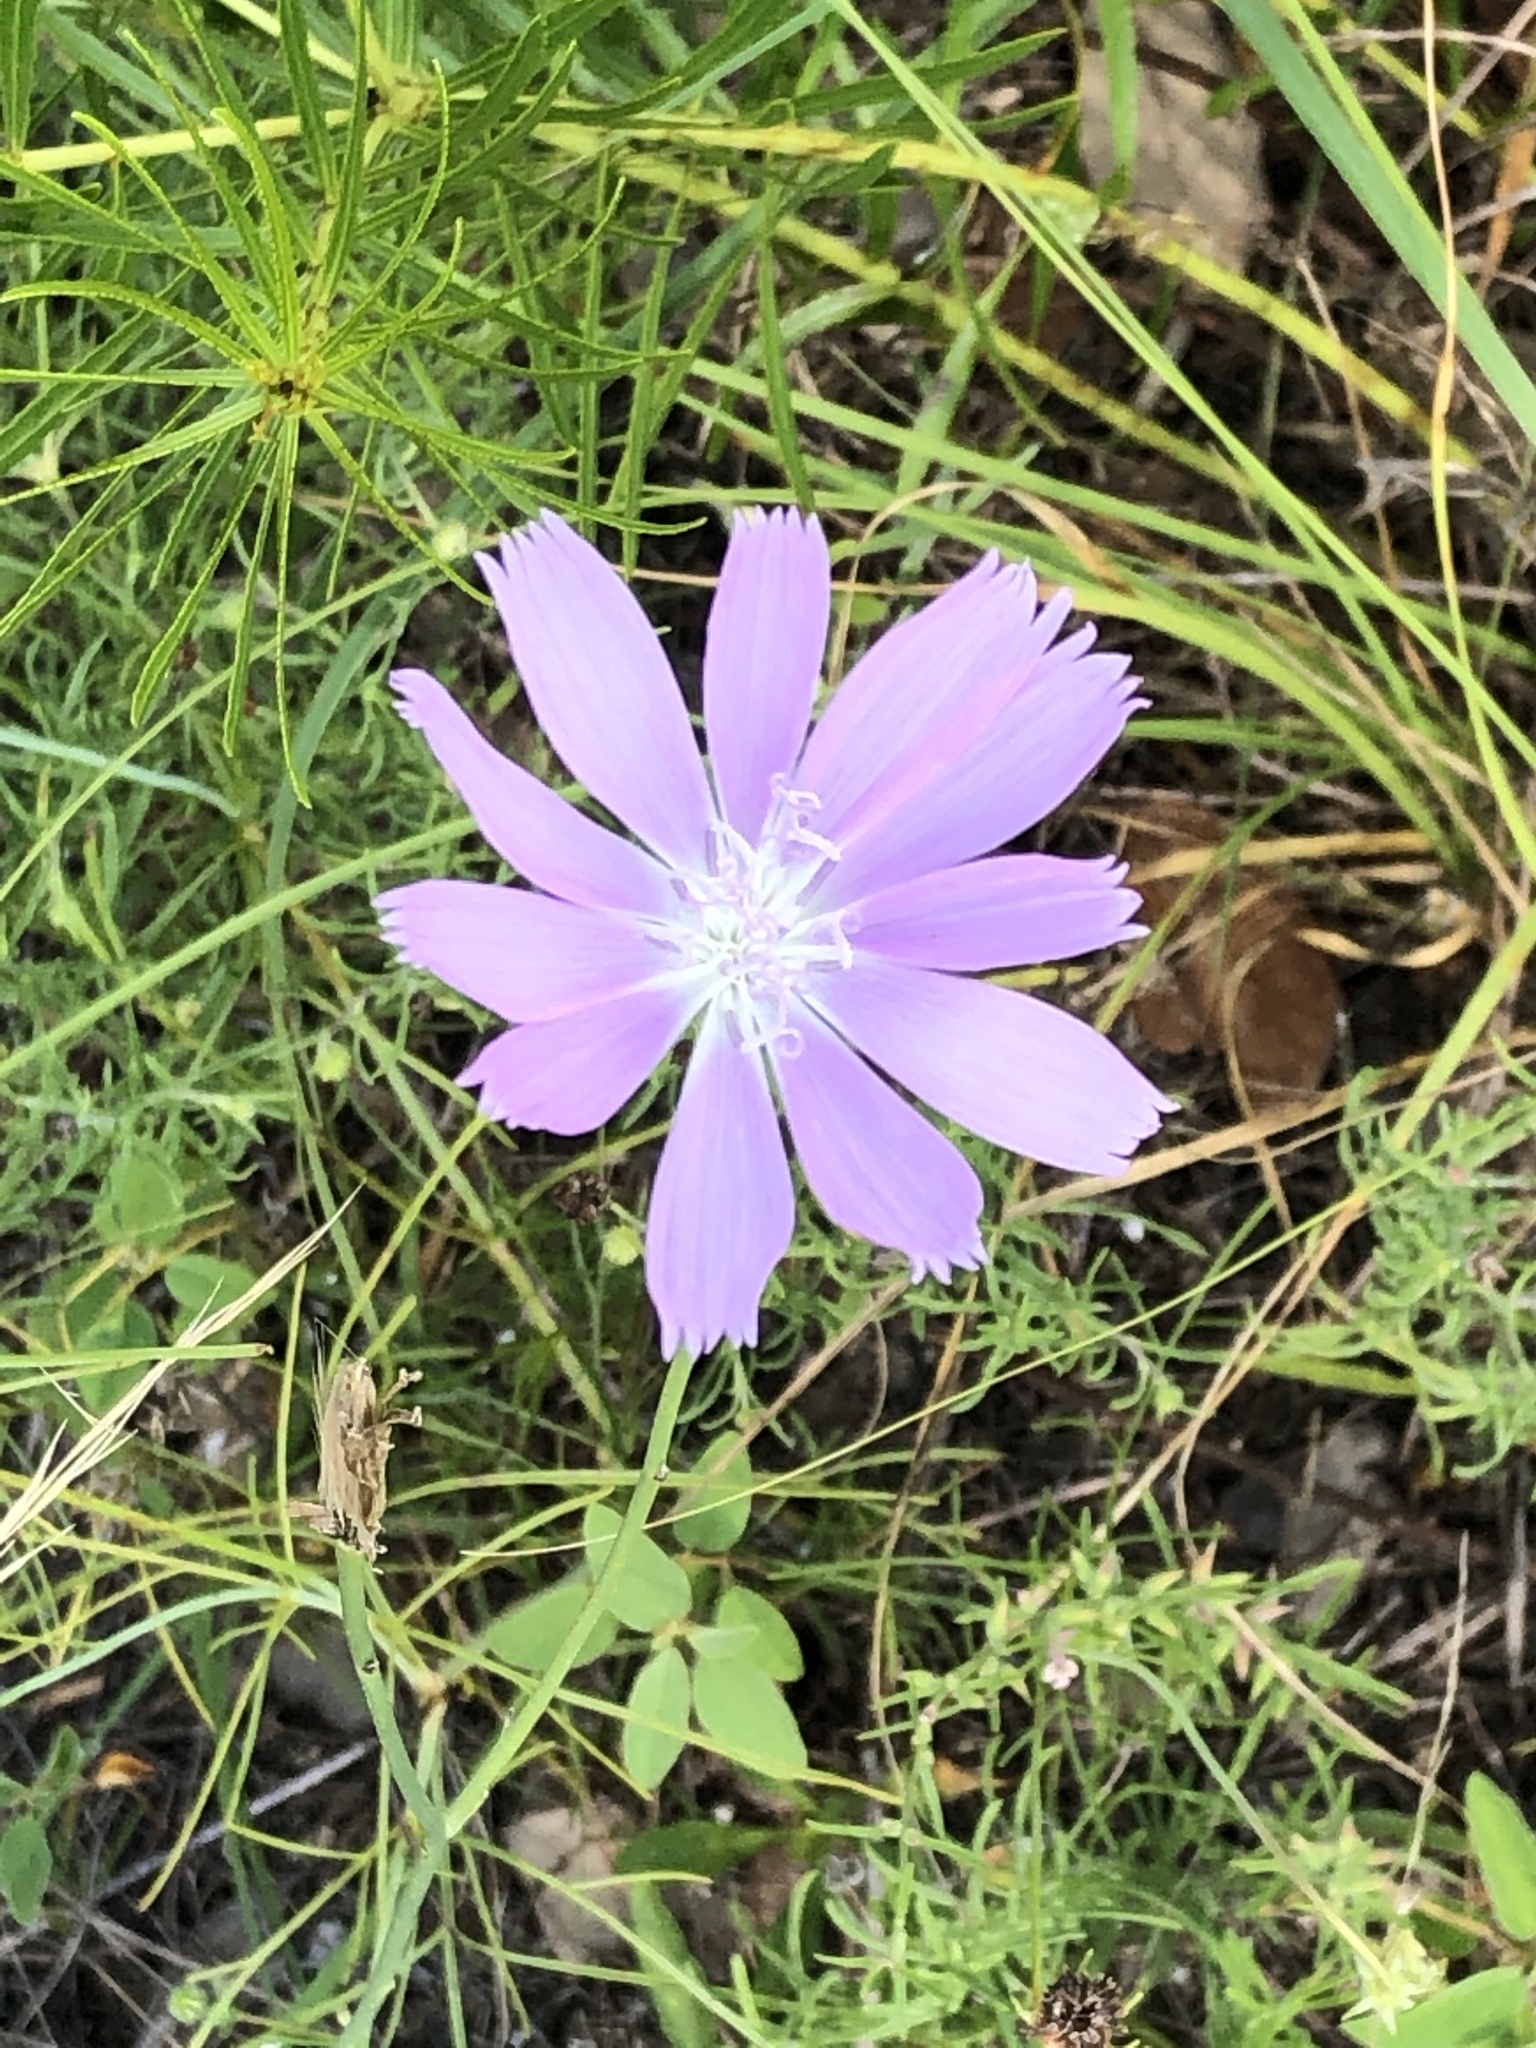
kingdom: Plantae
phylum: Tracheophyta
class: Magnoliopsida
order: Asterales
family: Asteraceae
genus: Lygodesmia
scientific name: Lygodesmia texana
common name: Texas skeleton-plant
